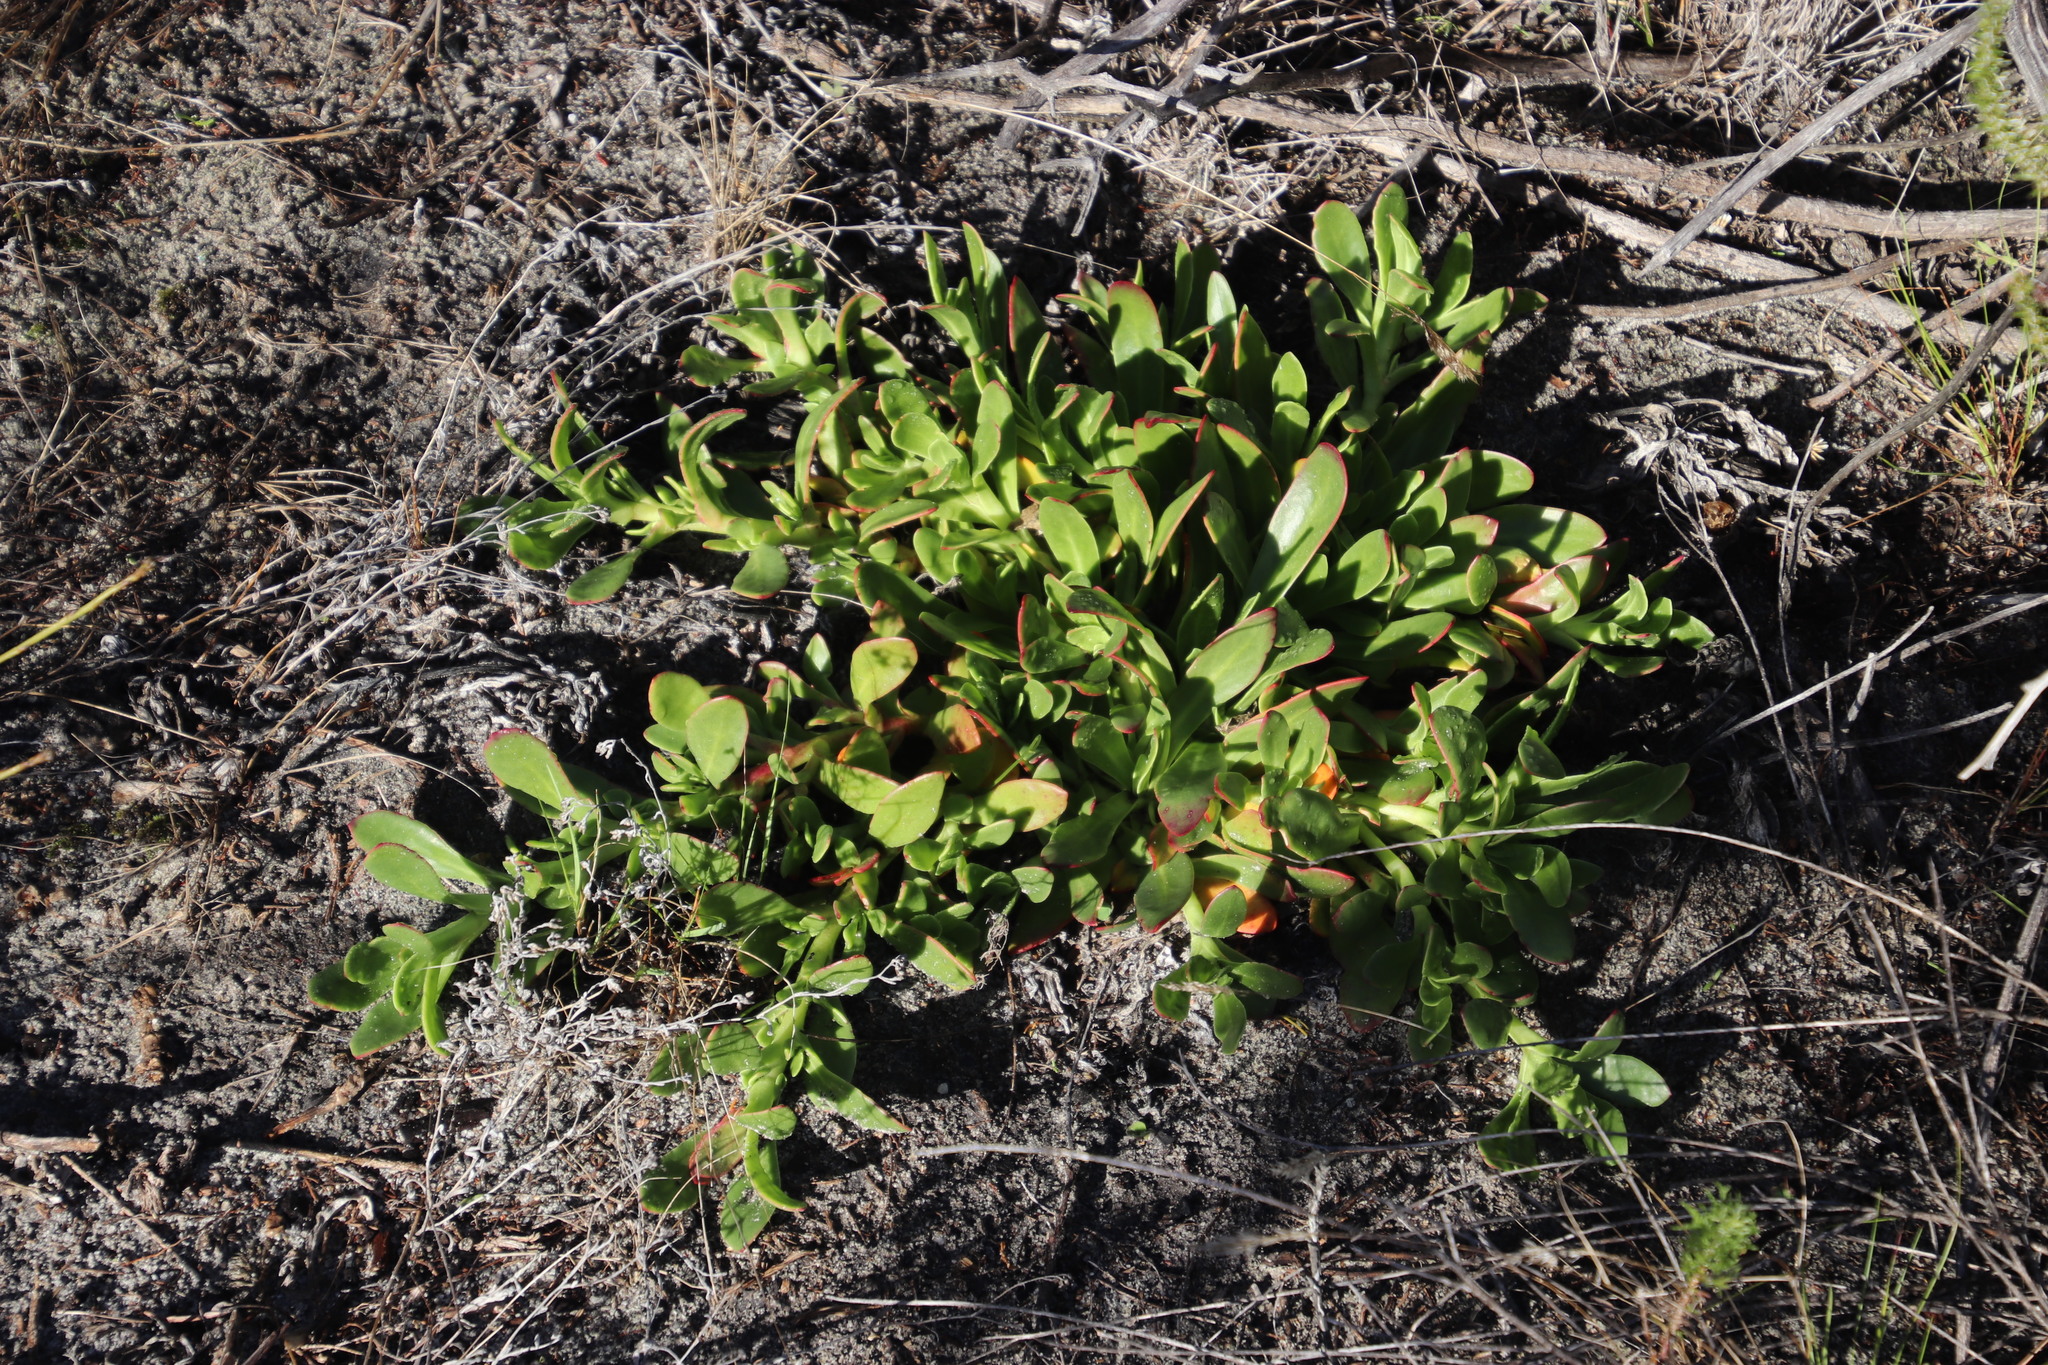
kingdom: Plantae
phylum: Tracheophyta
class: Magnoliopsida
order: Caryophyllales
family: Aizoaceae
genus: Skiatophytum
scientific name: Skiatophytum tripolium
